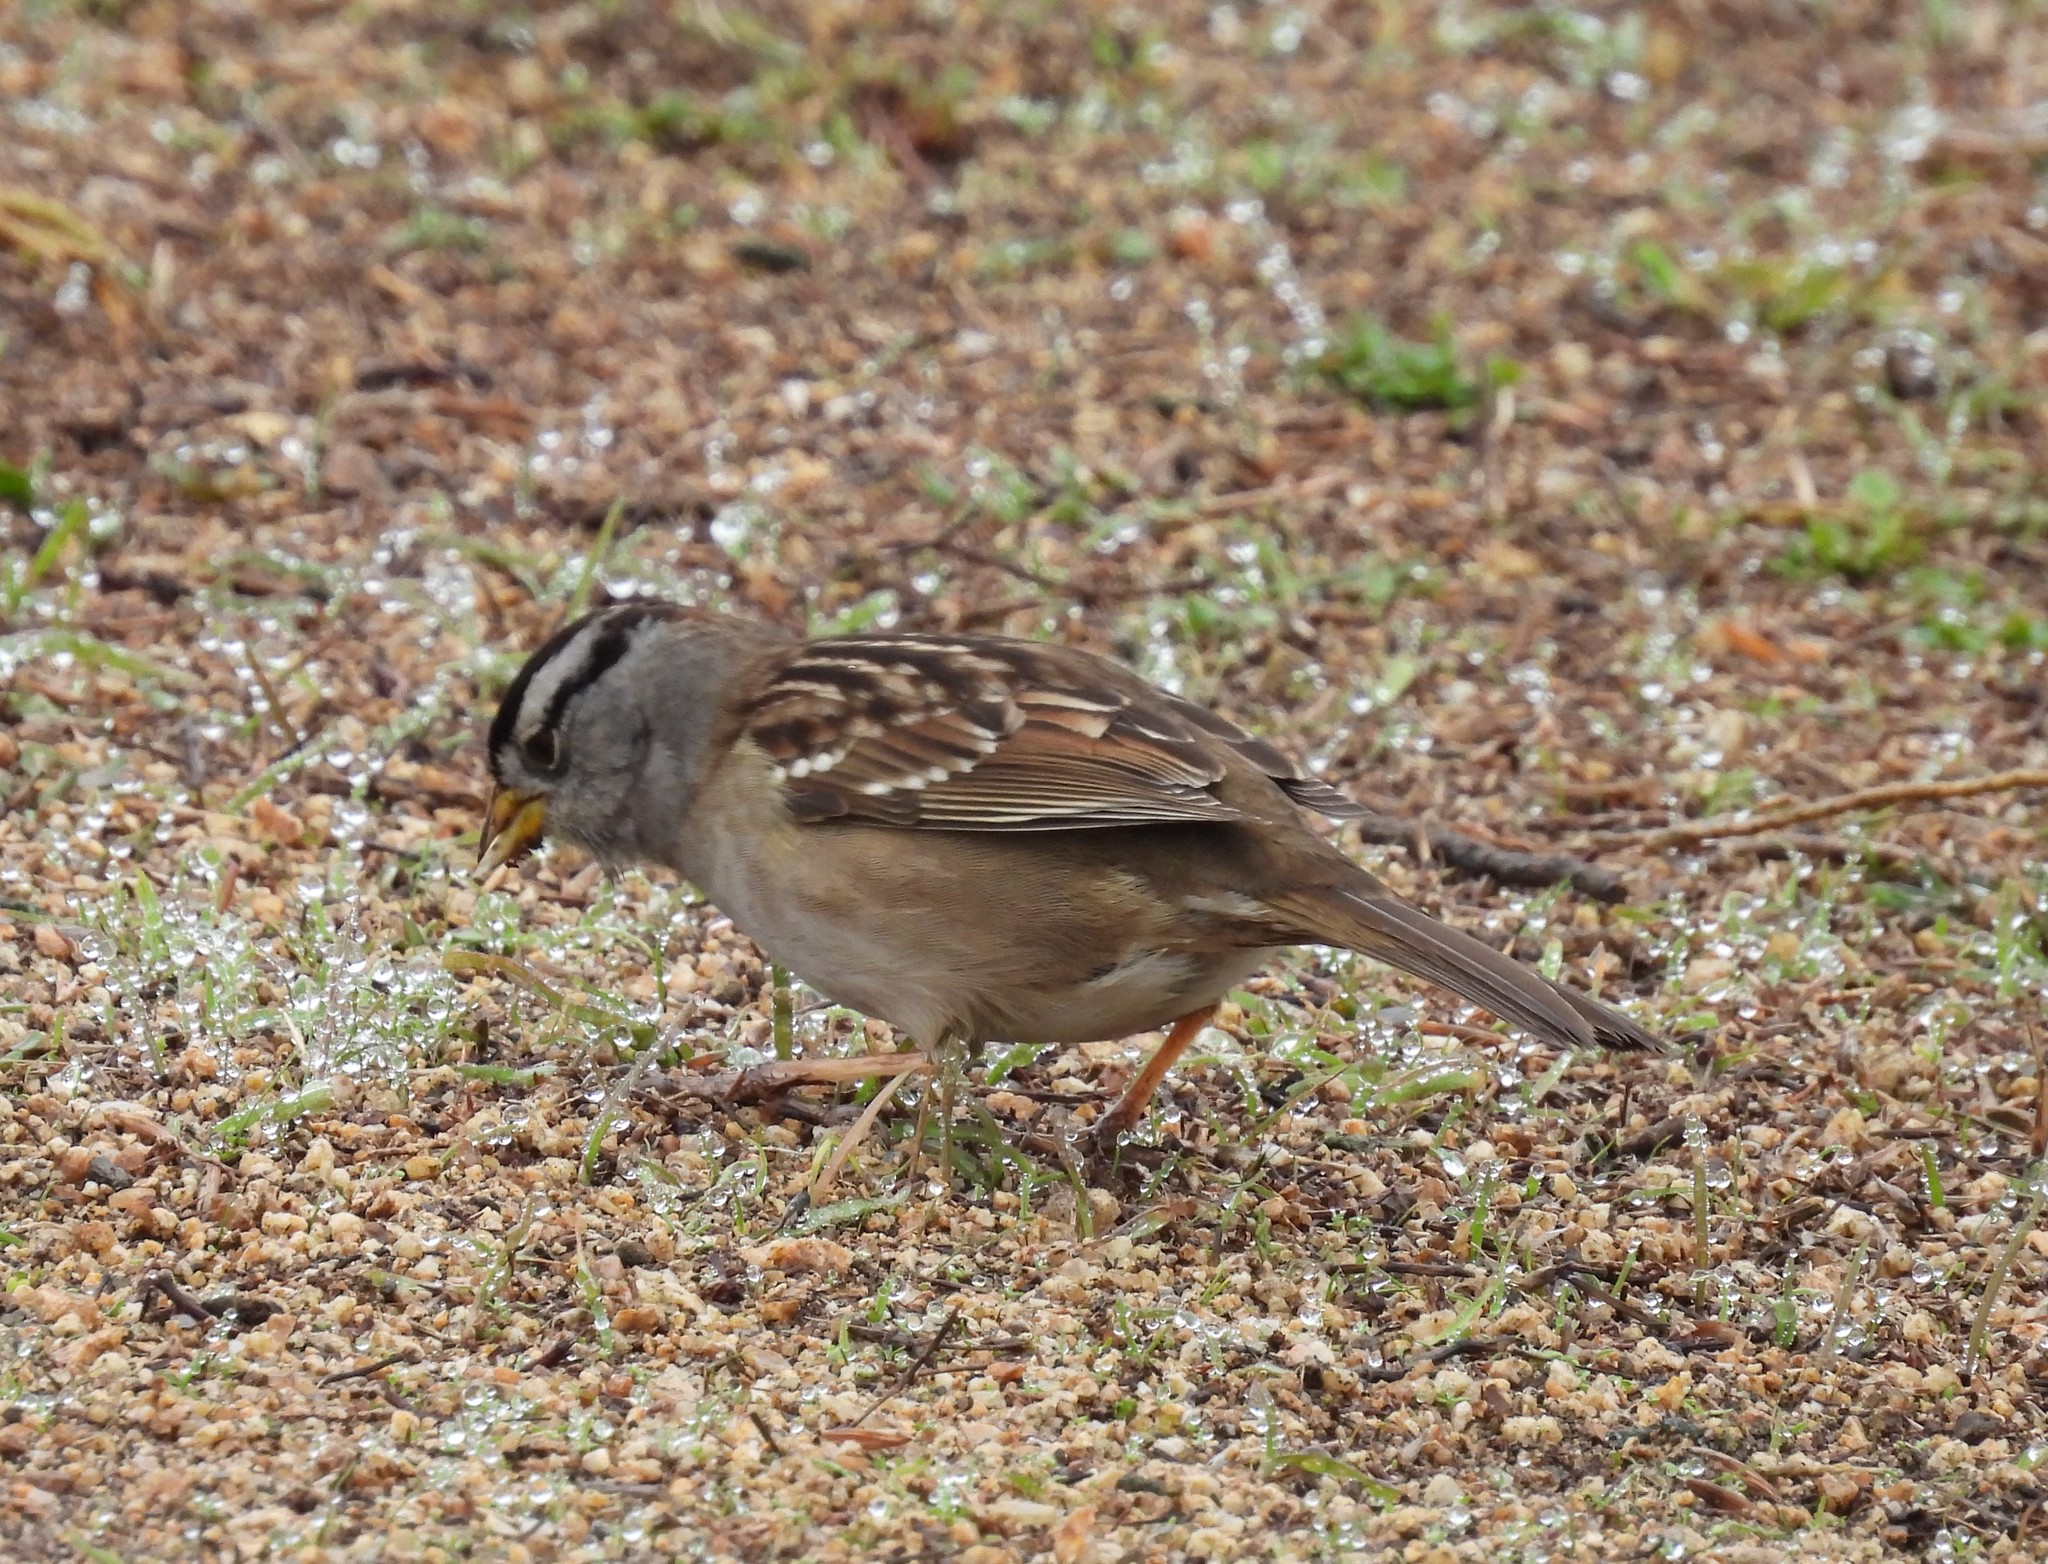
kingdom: Animalia
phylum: Chordata
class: Aves
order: Passeriformes
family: Passerellidae
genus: Zonotrichia
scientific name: Zonotrichia leucophrys
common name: White-crowned sparrow
